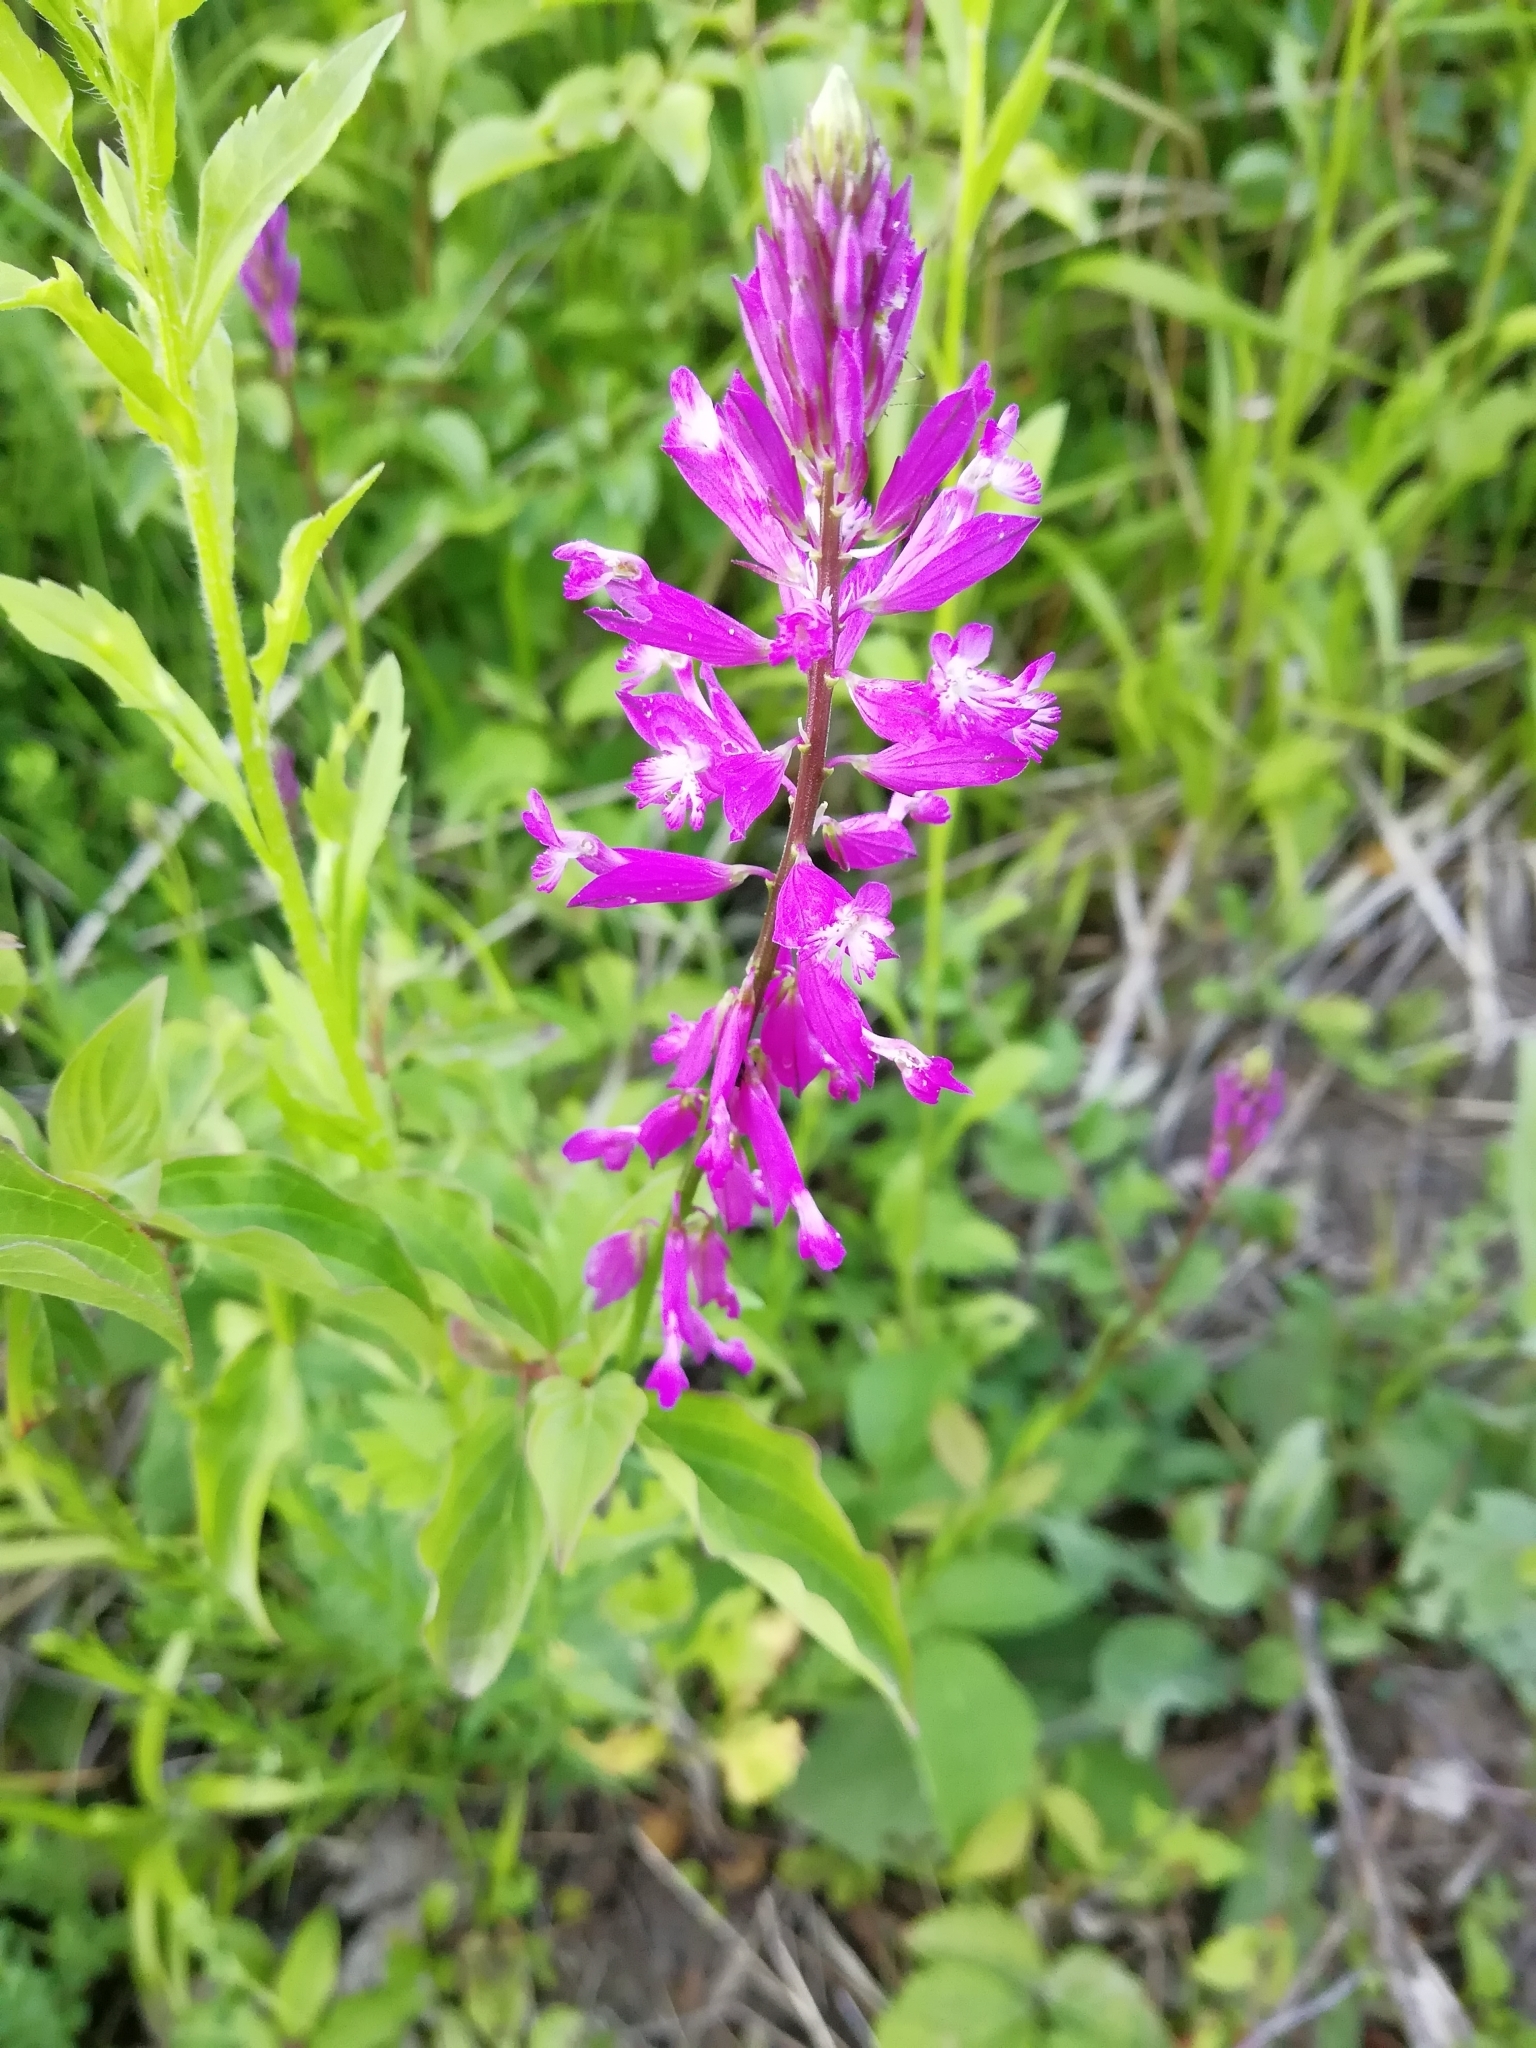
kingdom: Plantae
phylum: Tracheophyta
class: Magnoliopsida
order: Fabales
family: Polygalaceae
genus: Polygala
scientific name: Polygala major
